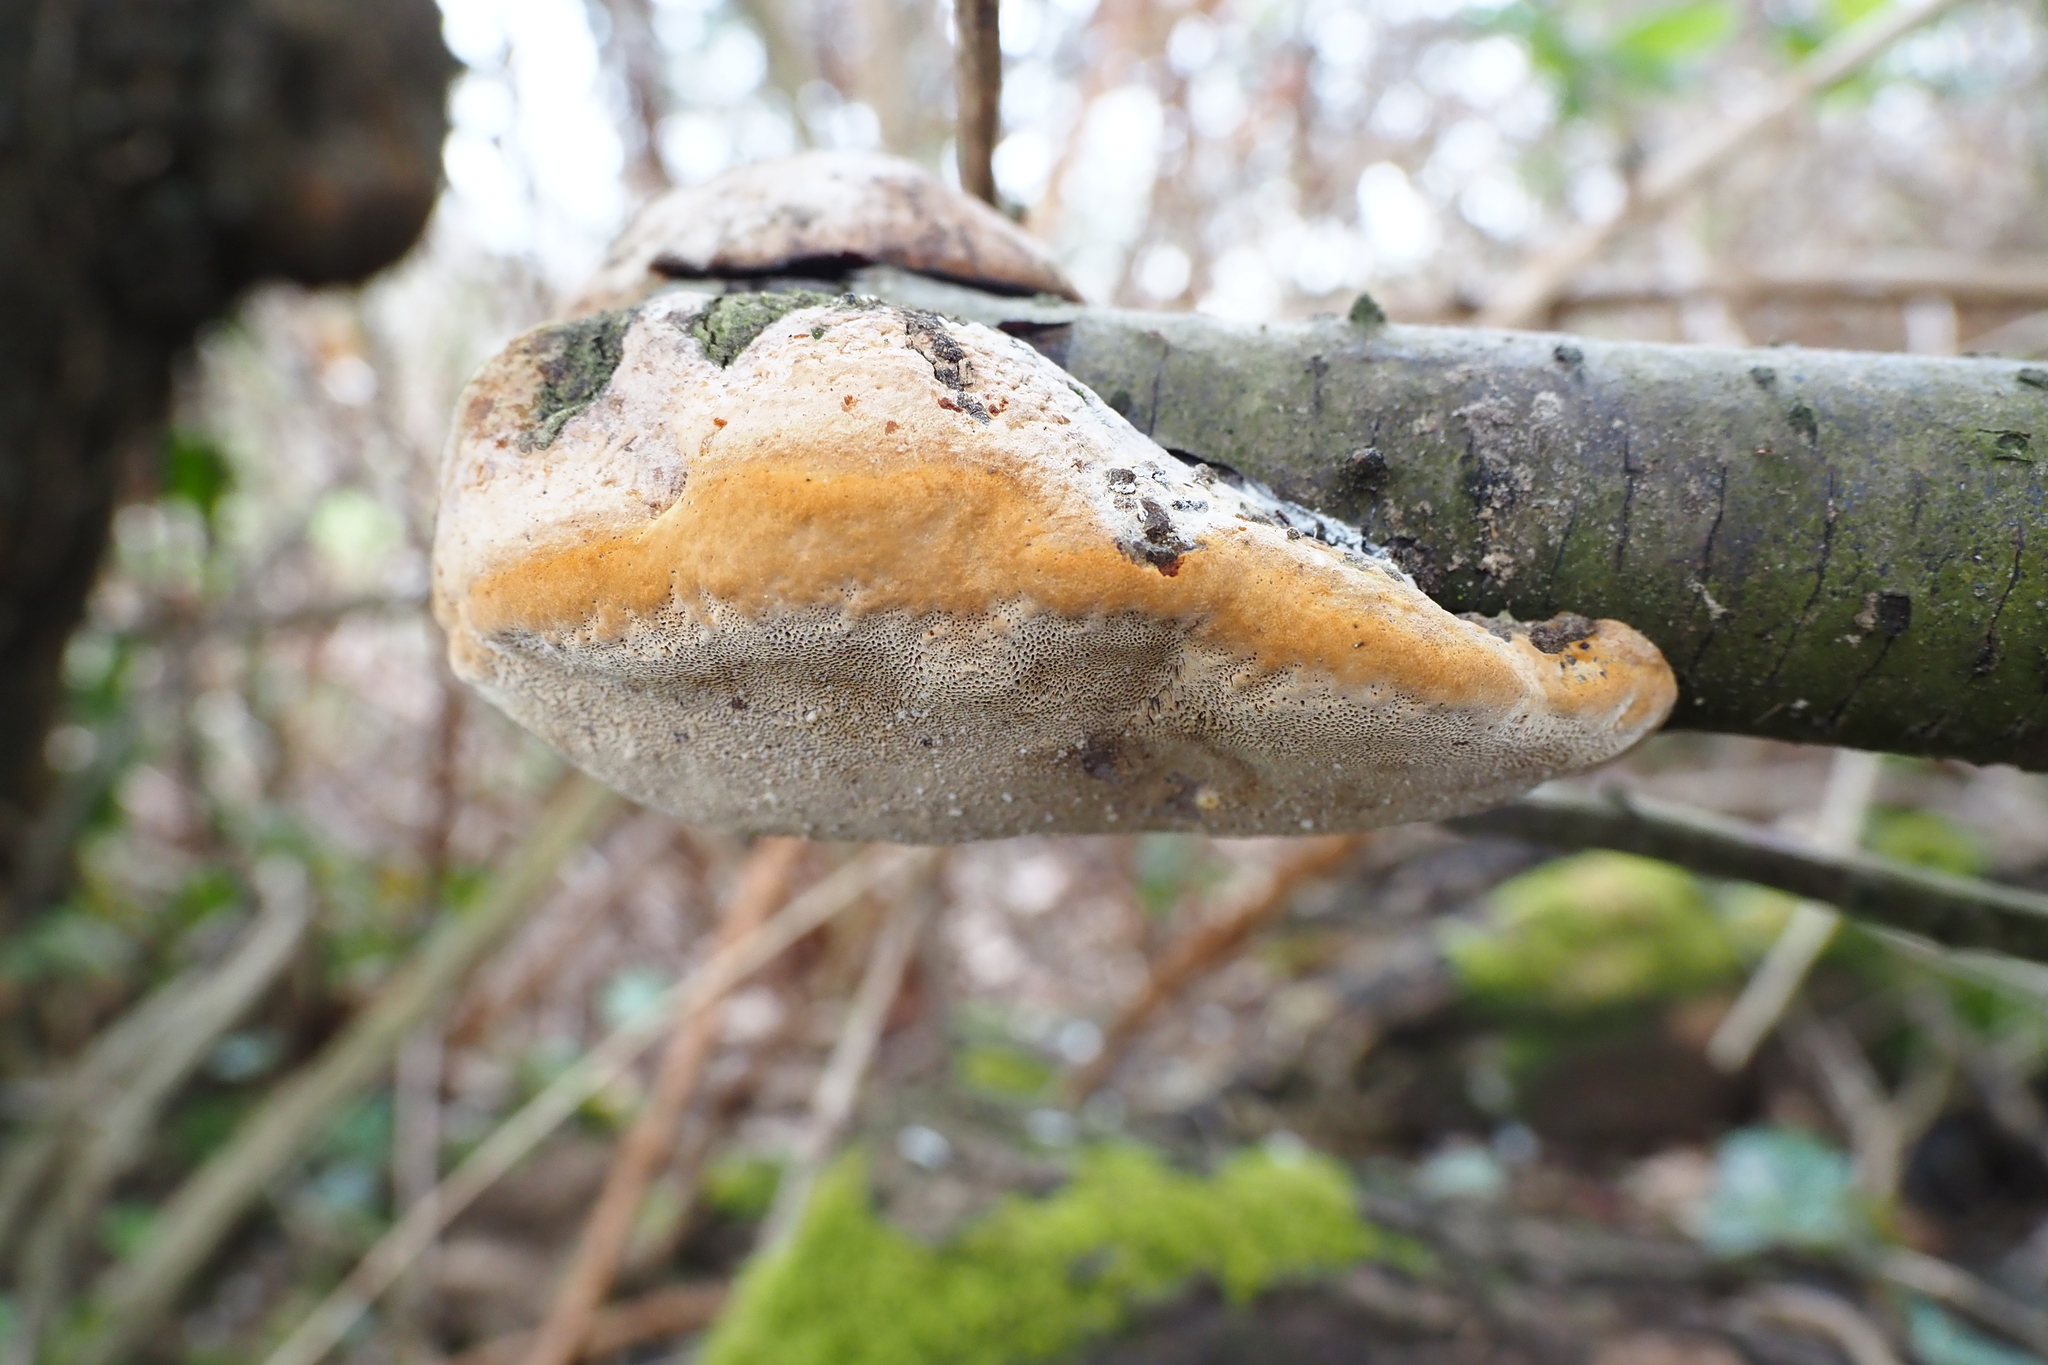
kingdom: Fungi
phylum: Basidiomycota
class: Agaricomycetes
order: Hymenochaetales
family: Hymenochaetaceae
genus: Phellinus
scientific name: Phellinus pomaceus
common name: Cushion bracket
